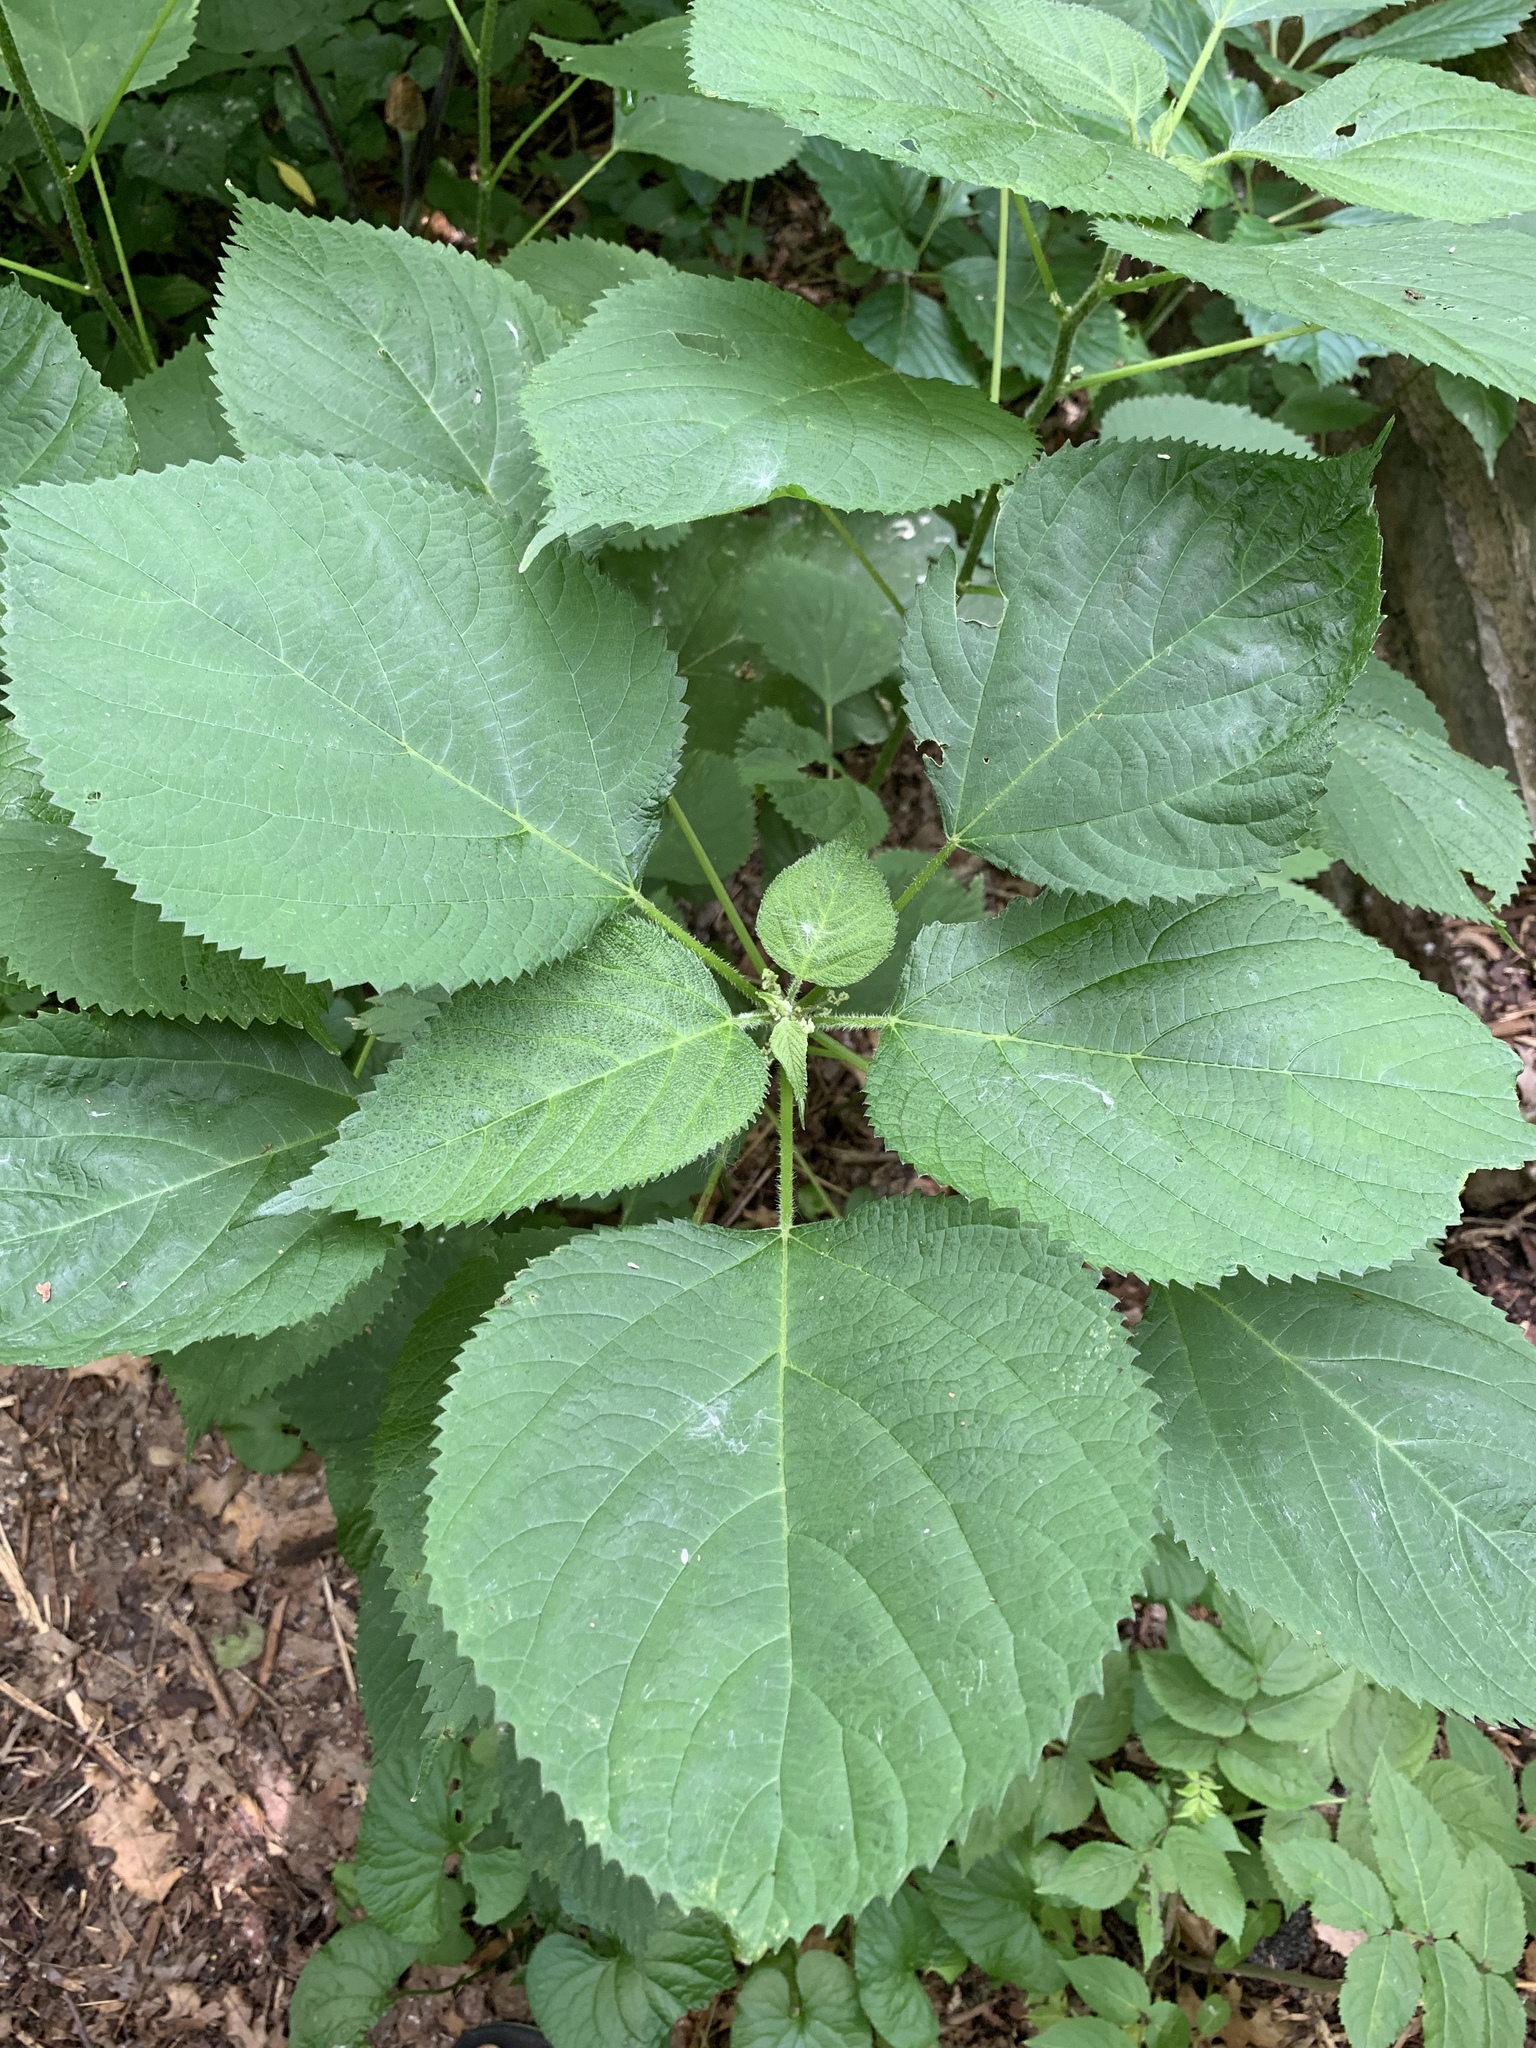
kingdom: Plantae
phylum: Tracheophyta
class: Magnoliopsida
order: Rosales
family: Urticaceae
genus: Laportea
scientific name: Laportea canadensis
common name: Canada nettle
